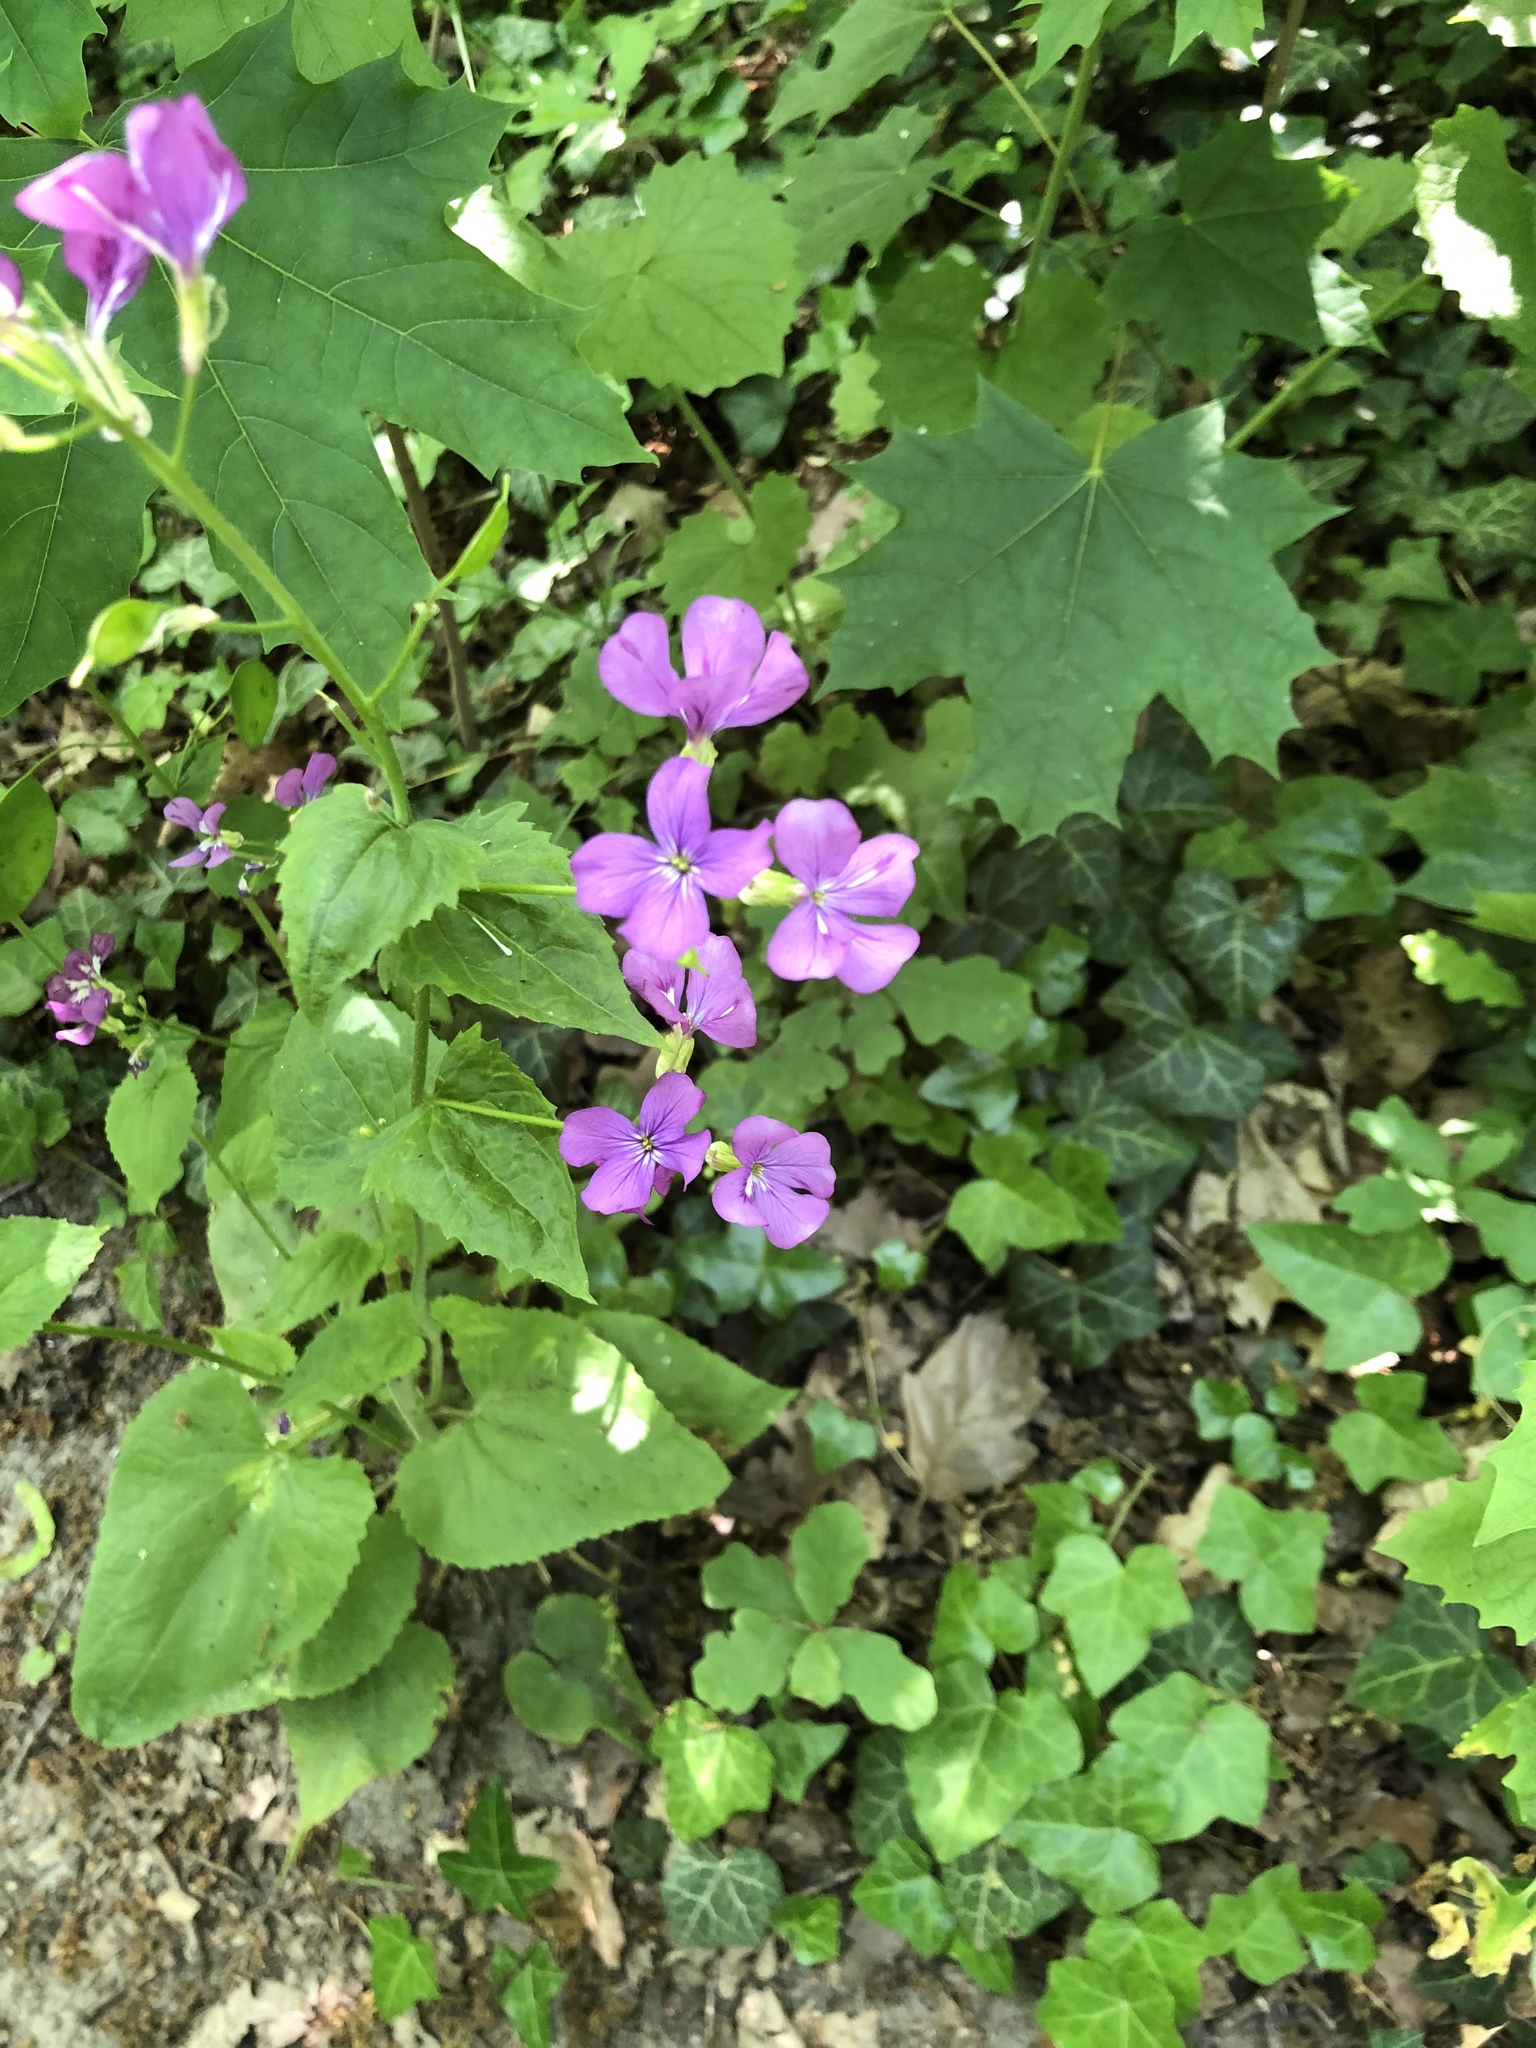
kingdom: Plantae
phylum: Tracheophyta
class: Magnoliopsida
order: Brassicales
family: Brassicaceae
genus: Lunaria
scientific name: Lunaria annua
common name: Honesty
